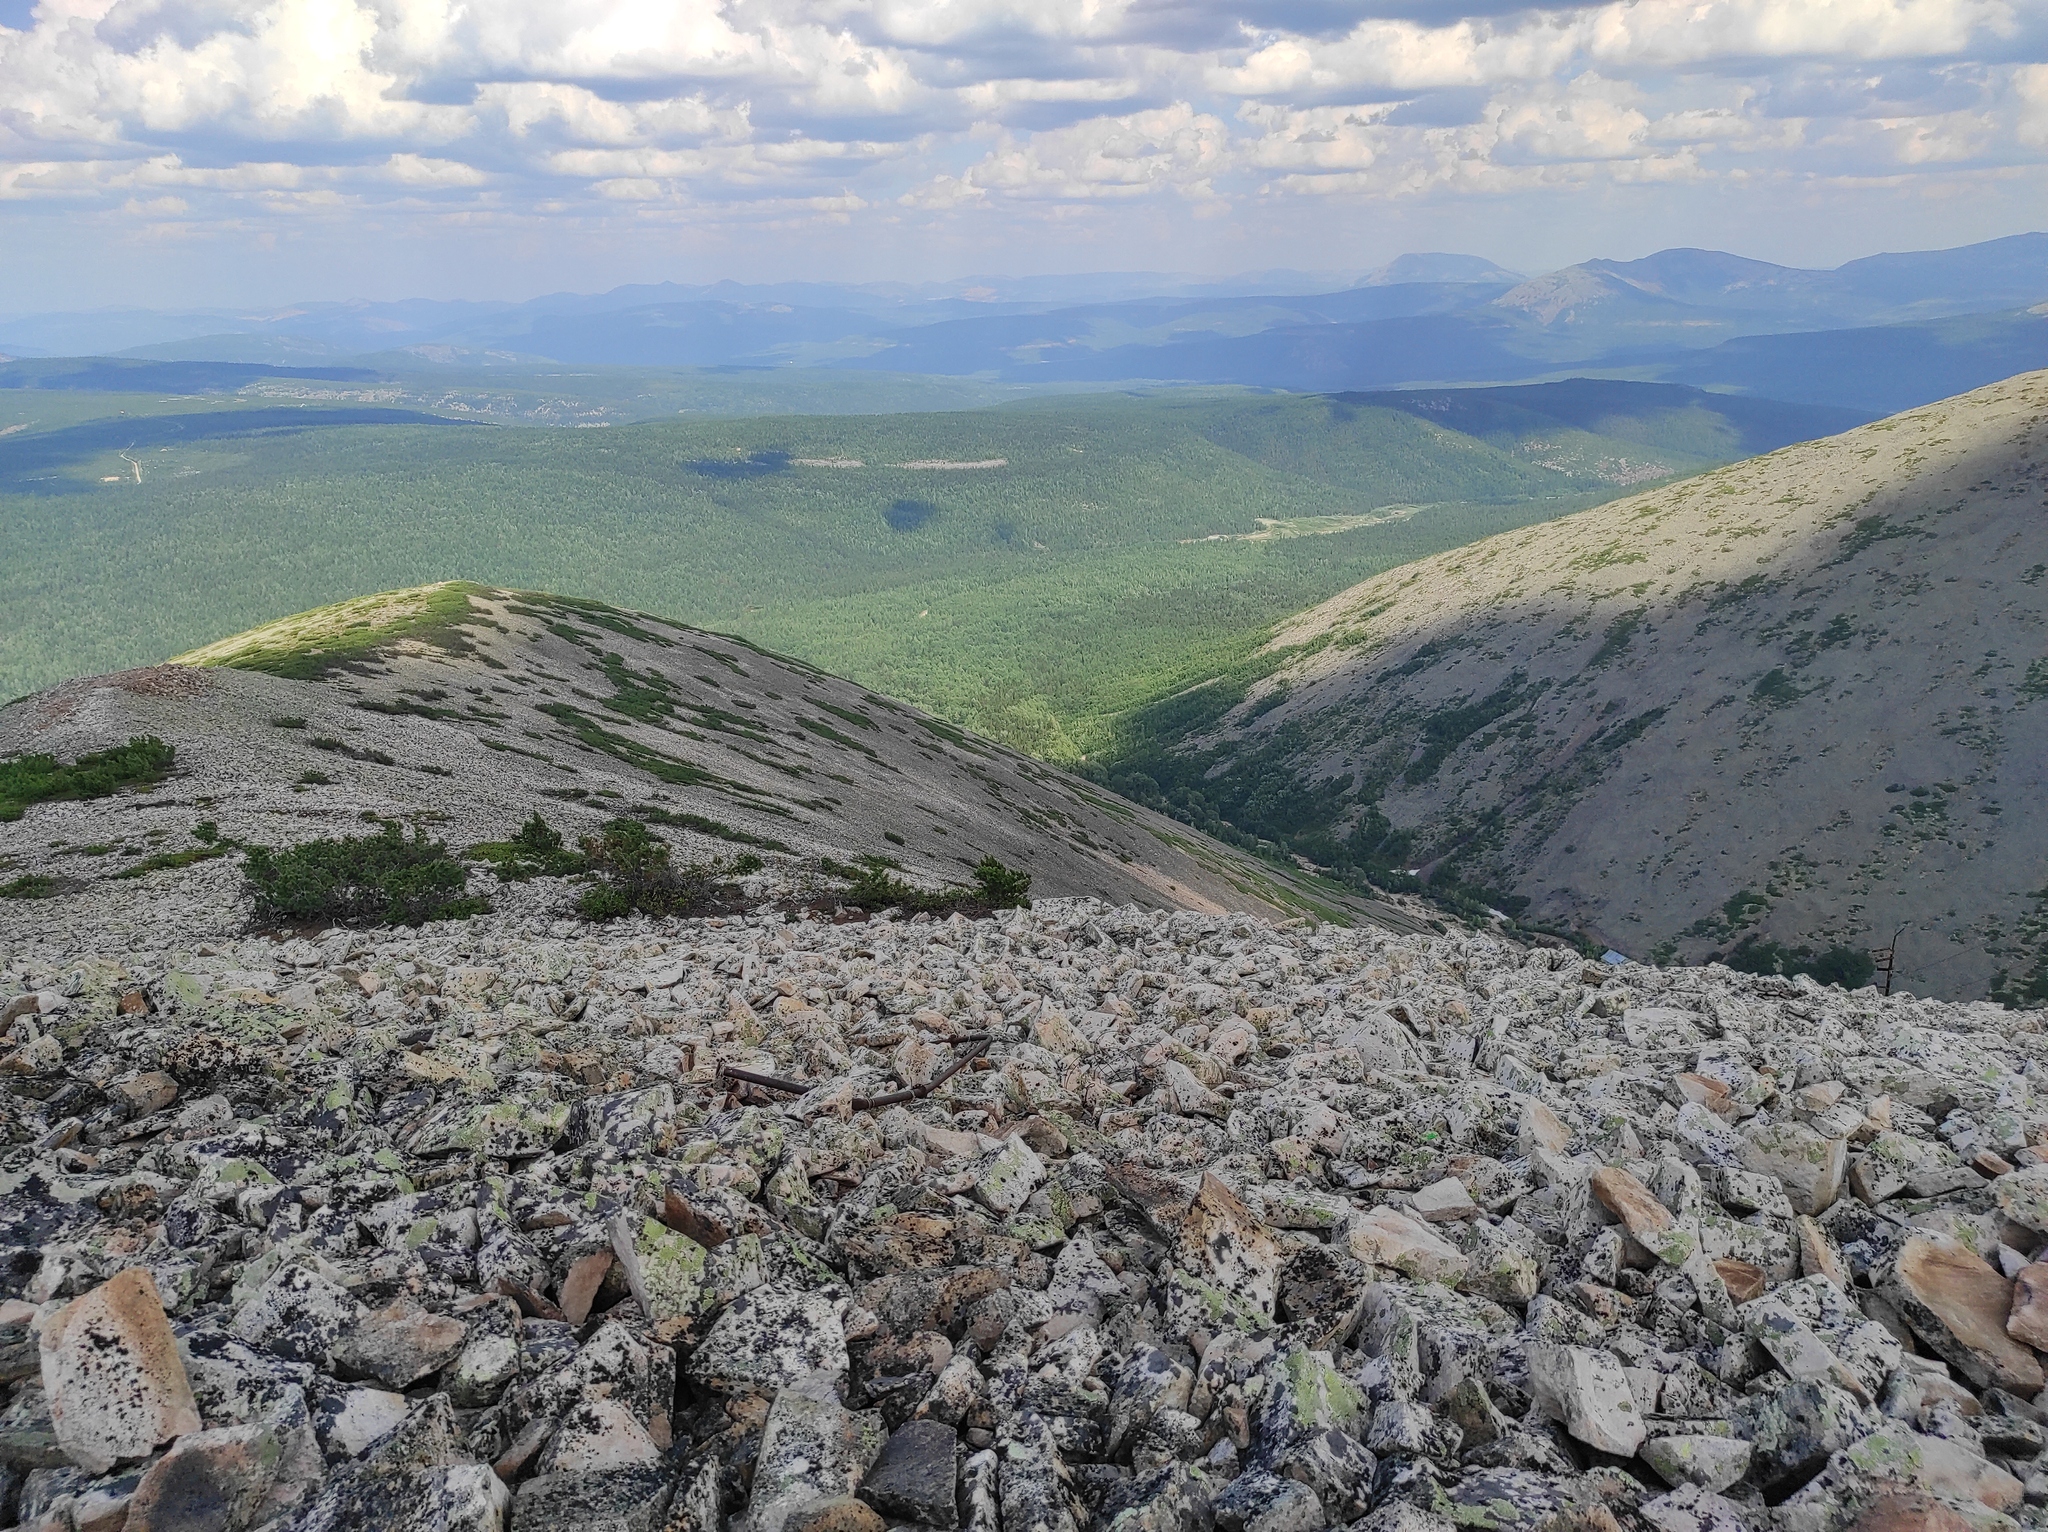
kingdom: Plantae
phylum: Tracheophyta
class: Pinopsida
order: Pinales
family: Pinaceae
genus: Pinus
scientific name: Pinus pumila
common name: Dwarf siberian pine
